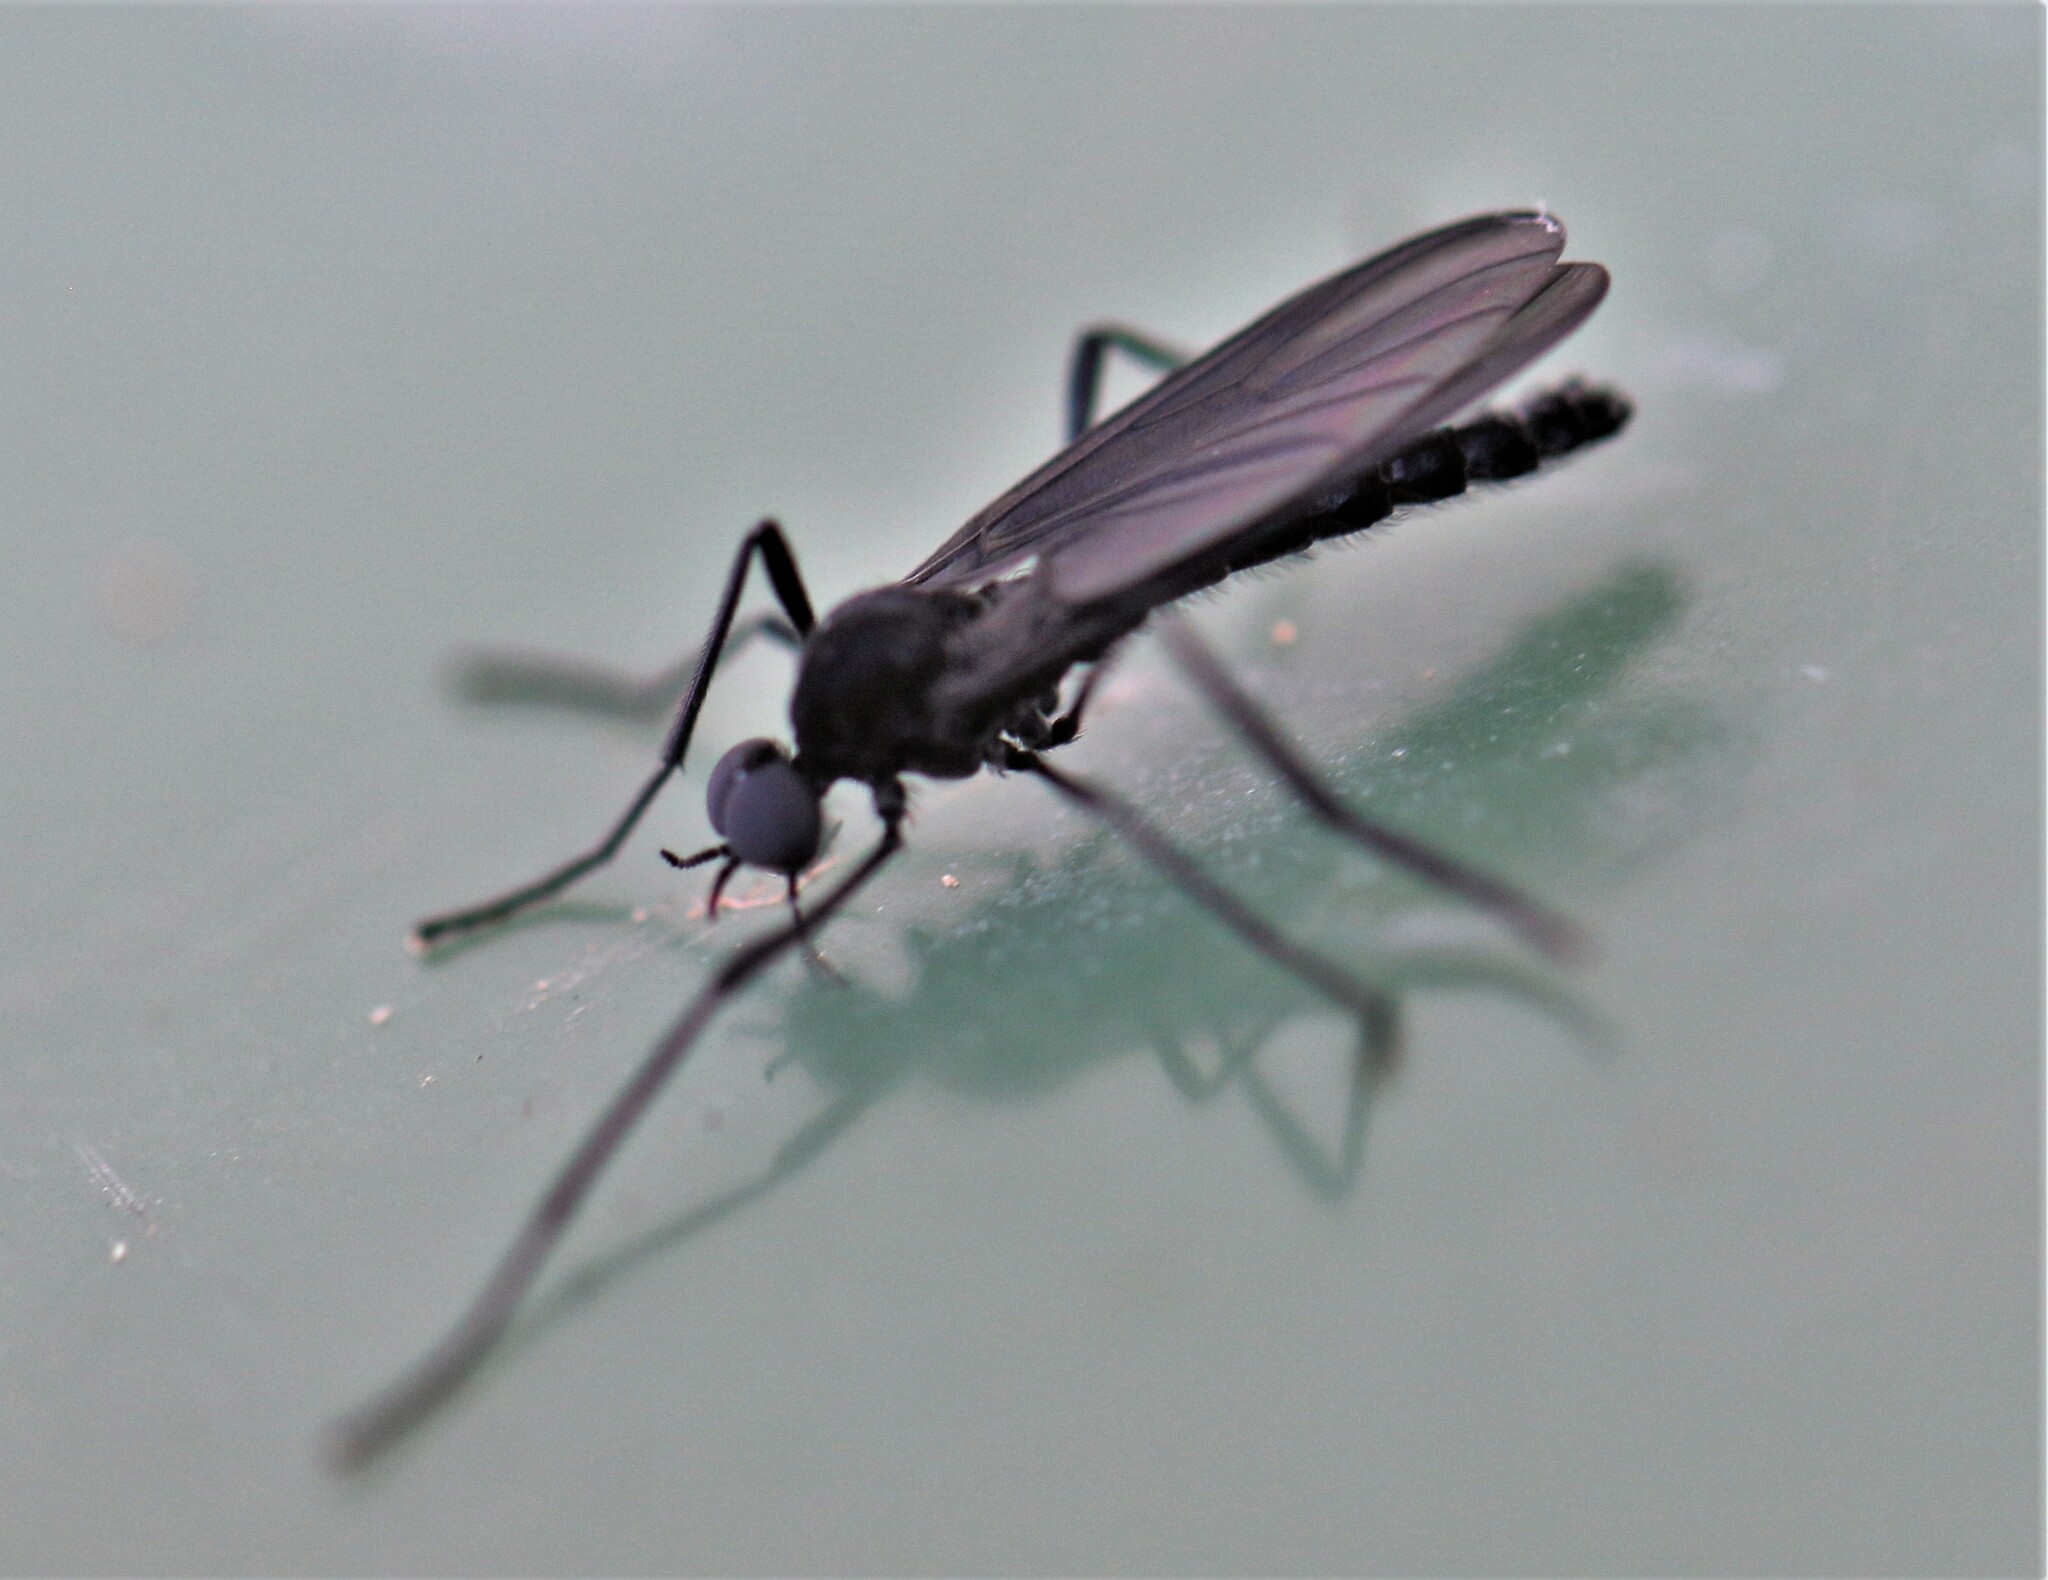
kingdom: Animalia
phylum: Arthropoda
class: Insecta
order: Diptera
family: Bibionidae
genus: Penthetria
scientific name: Penthetria heteroptera
